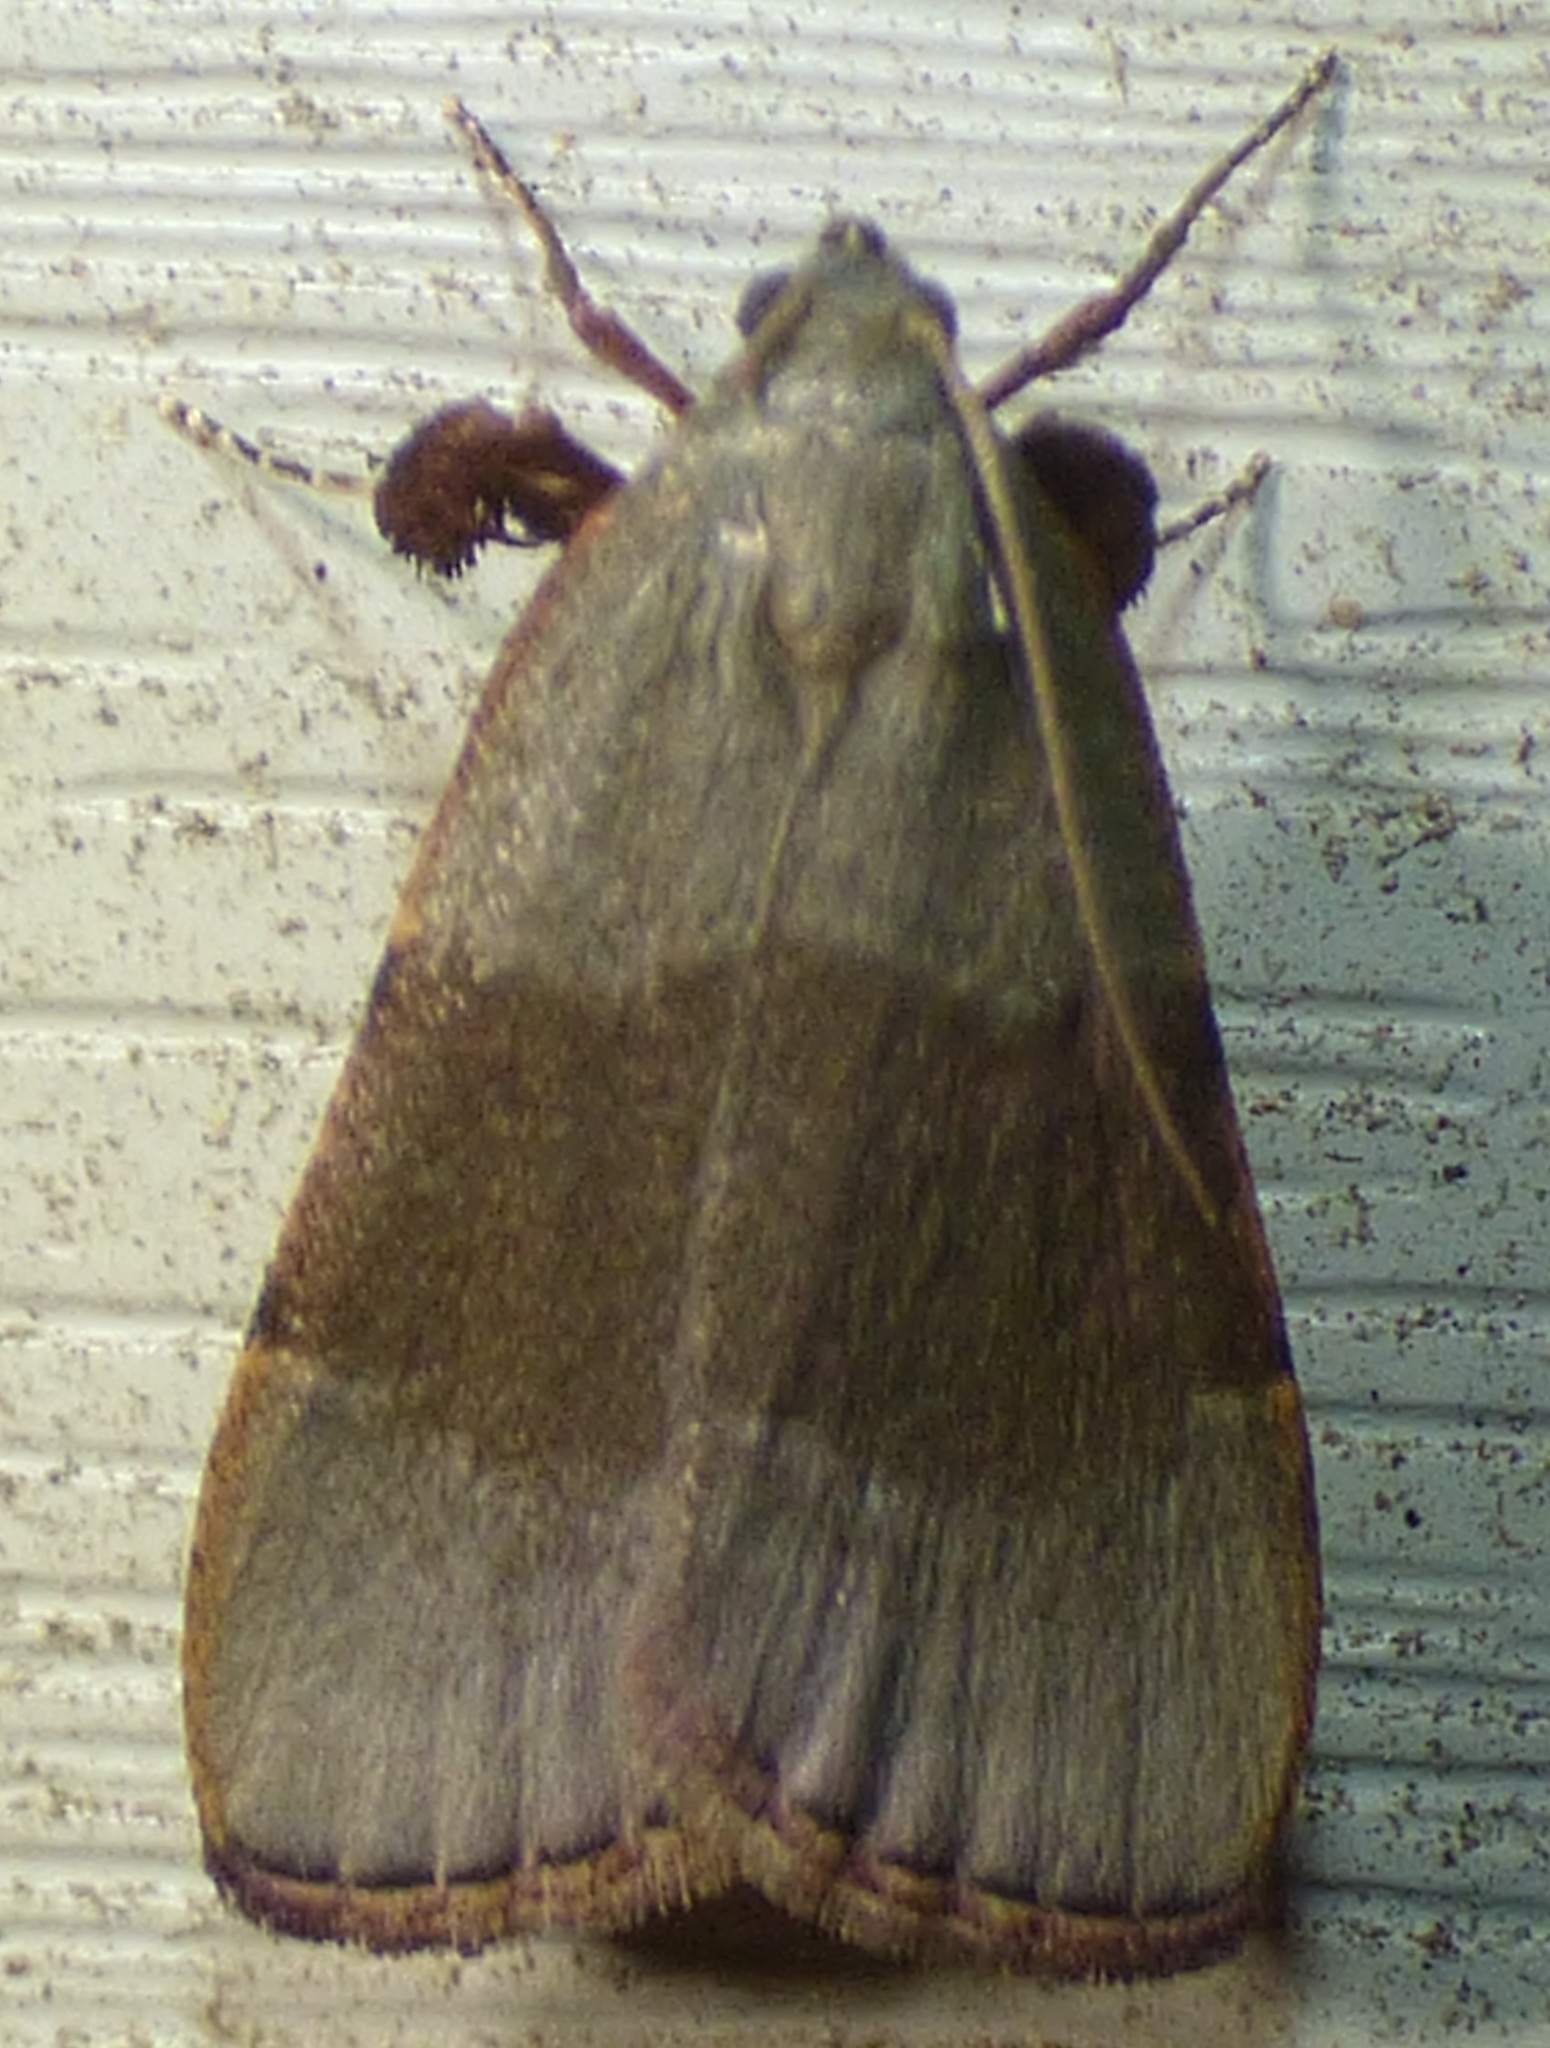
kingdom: Animalia
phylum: Arthropoda
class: Insecta
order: Lepidoptera
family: Pyralidae
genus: Basacallis
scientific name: Basacallis tarachodes
